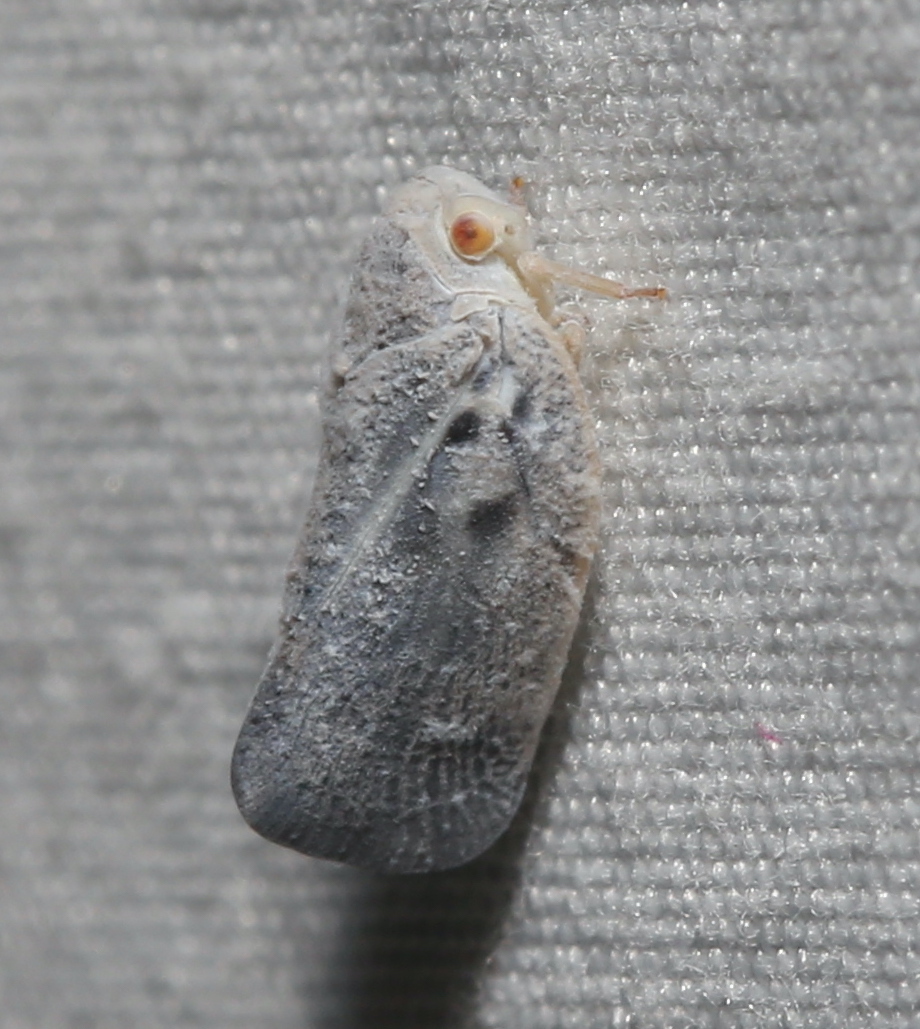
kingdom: Animalia
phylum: Arthropoda
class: Insecta
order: Hemiptera
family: Flatidae
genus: Metcalfa
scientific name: Metcalfa pruinosa
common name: Citrus flatid planthopper
